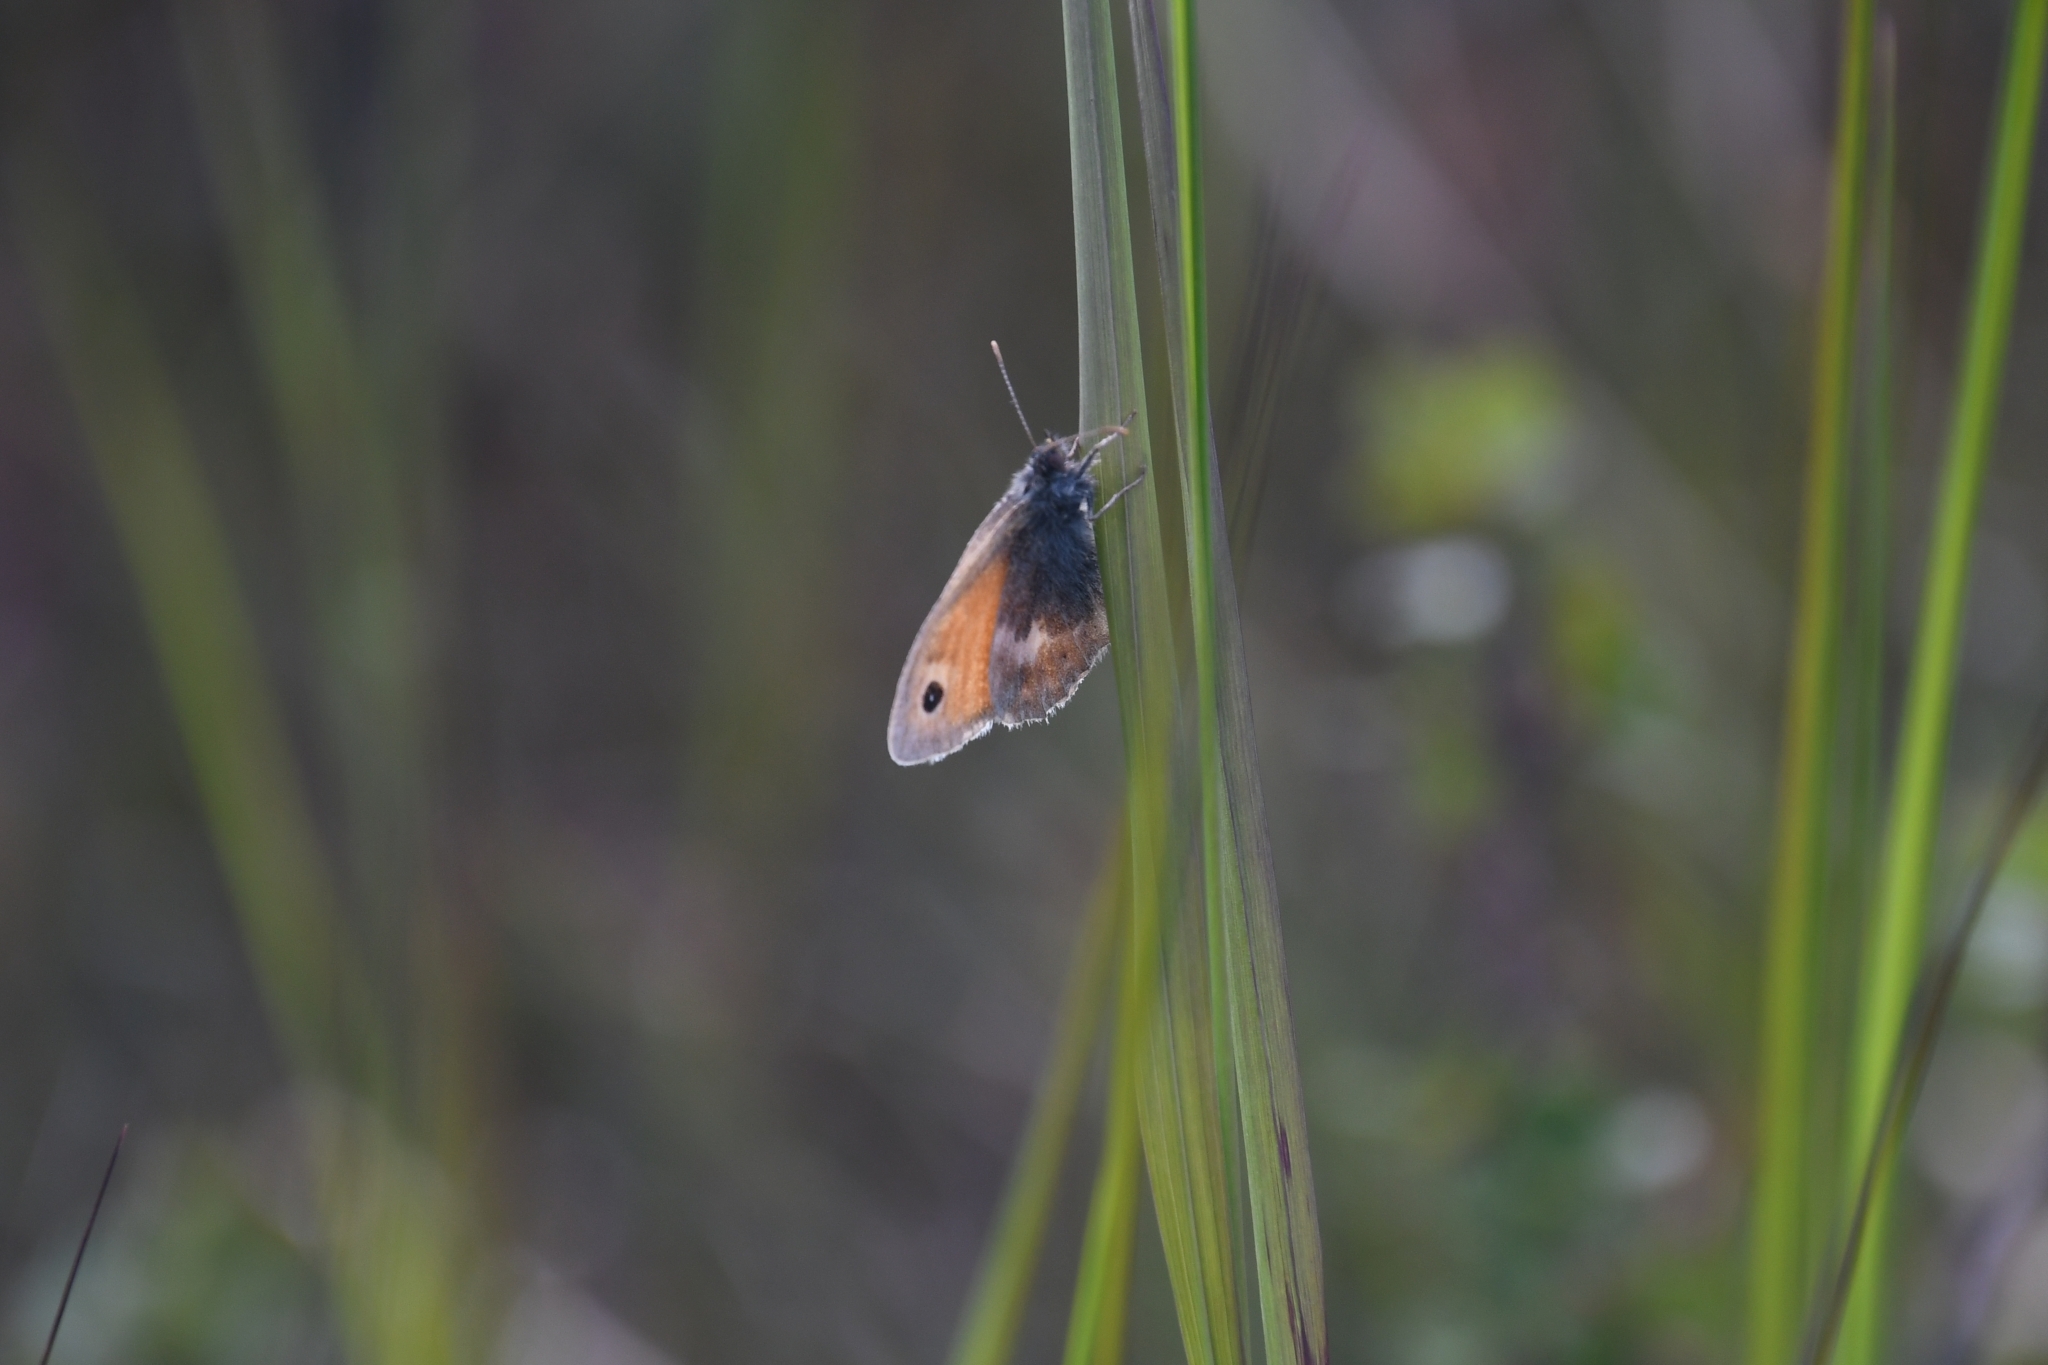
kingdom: Animalia
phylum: Arthropoda
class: Insecta
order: Lepidoptera
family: Nymphalidae
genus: Coenonympha
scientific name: Coenonympha pamphilus
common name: Small heath
